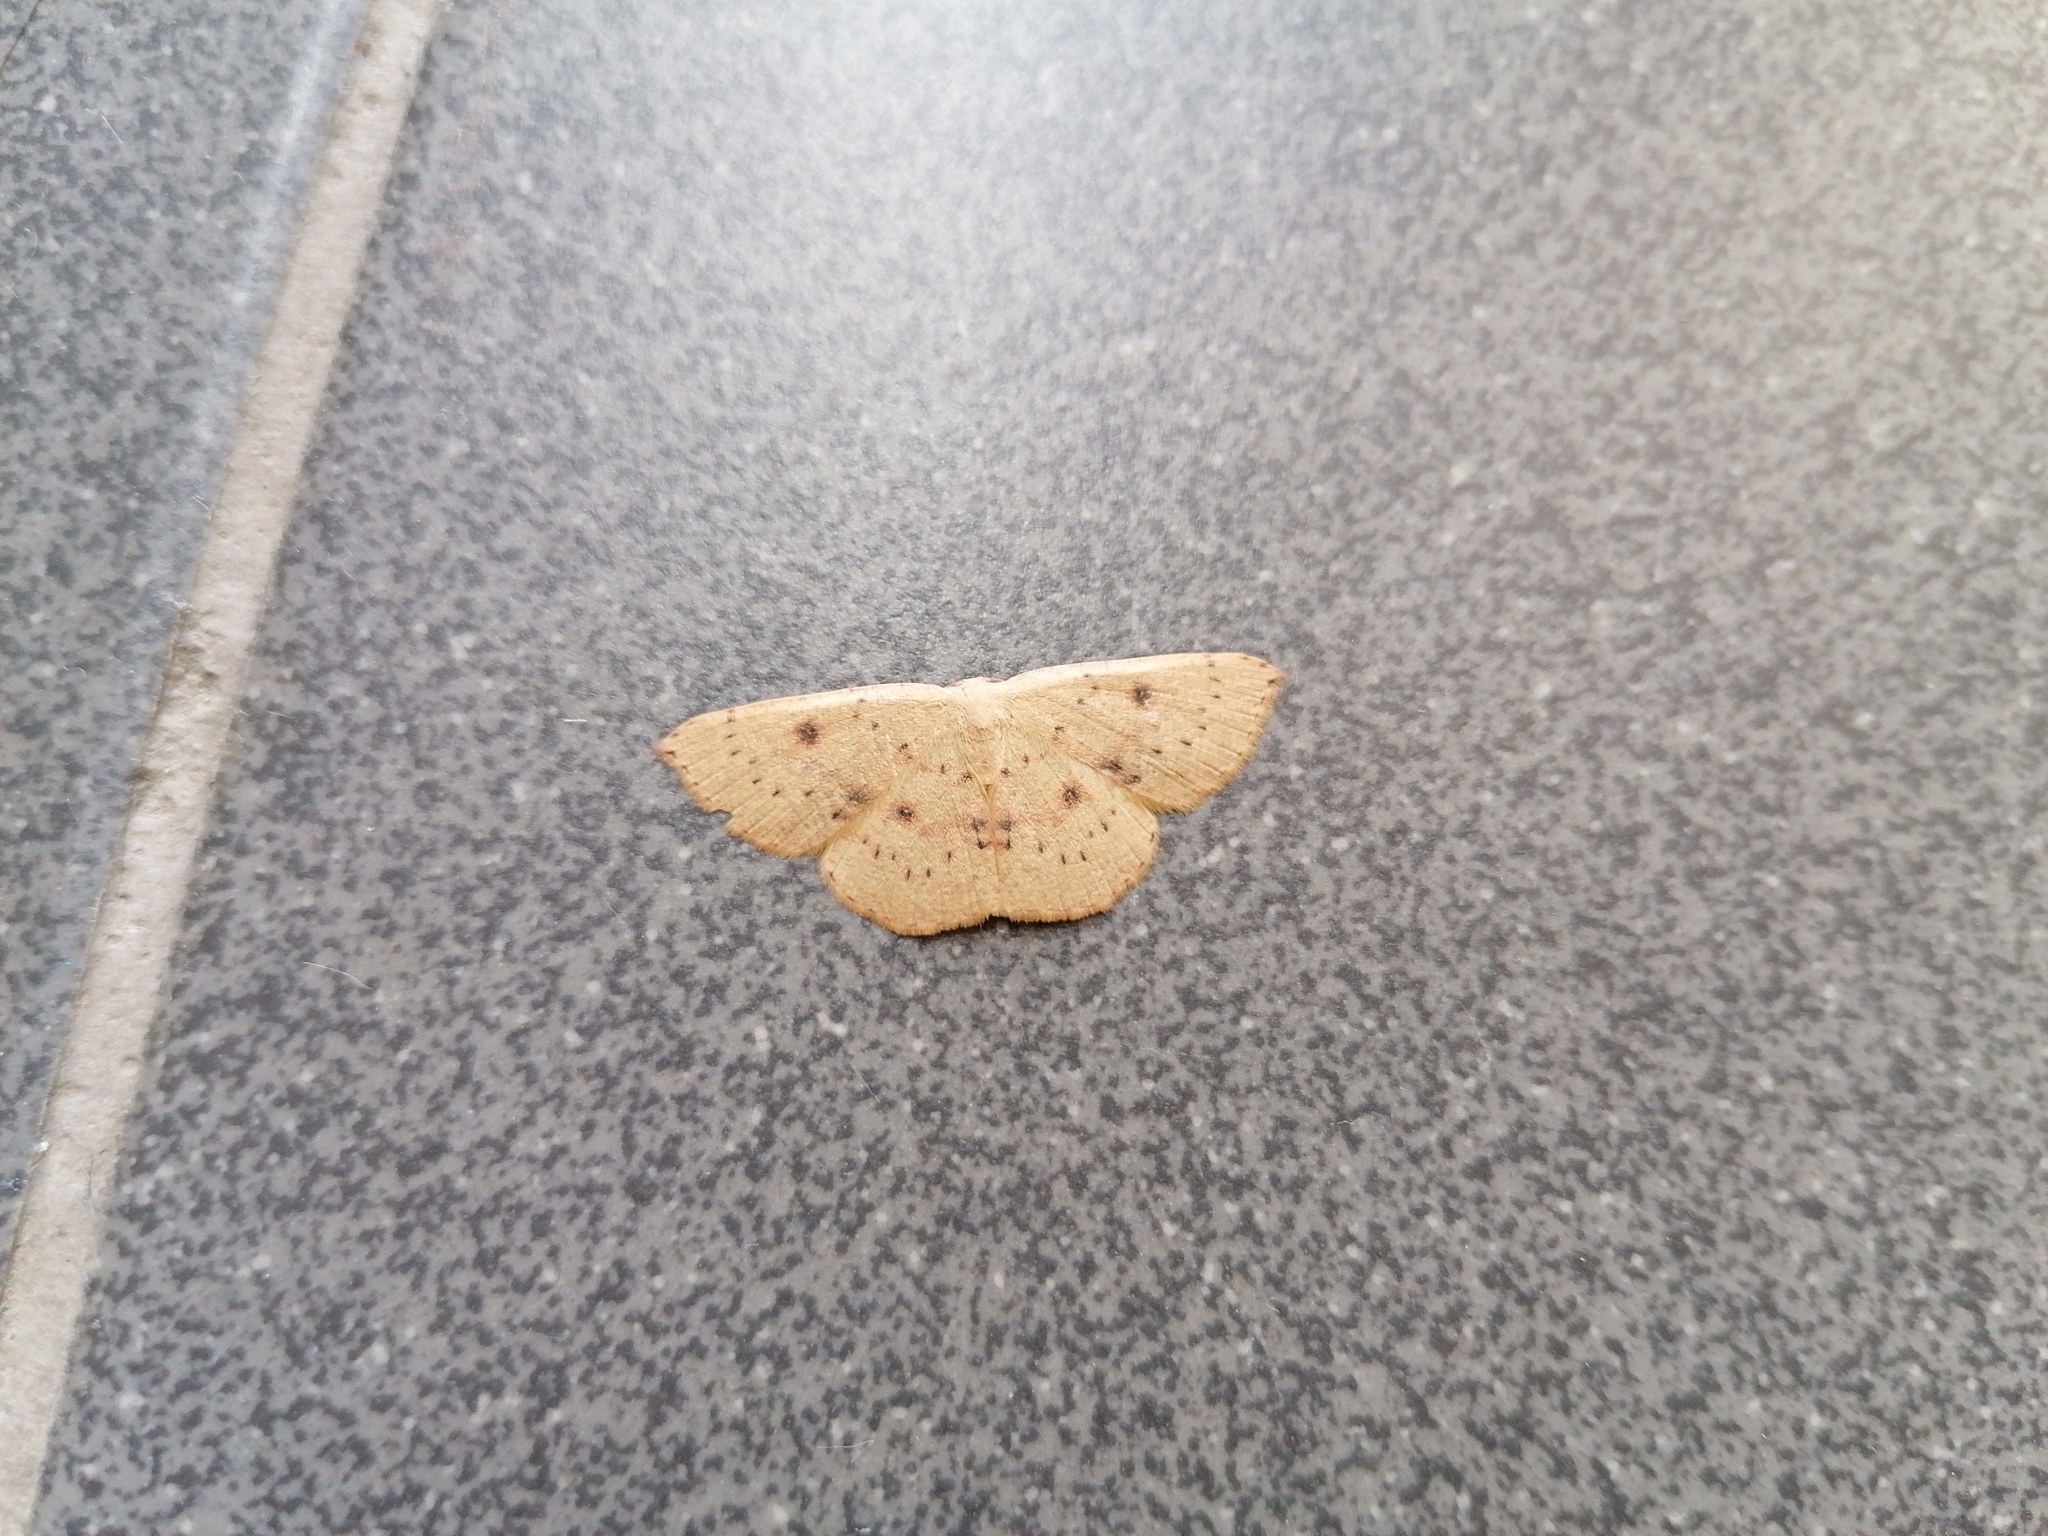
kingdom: Animalia
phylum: Arthropoda
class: Insecta
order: Lepidoptera
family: Geometridae
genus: Cyclophora
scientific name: Cyclophora puppillaria
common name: Blair's mocha
